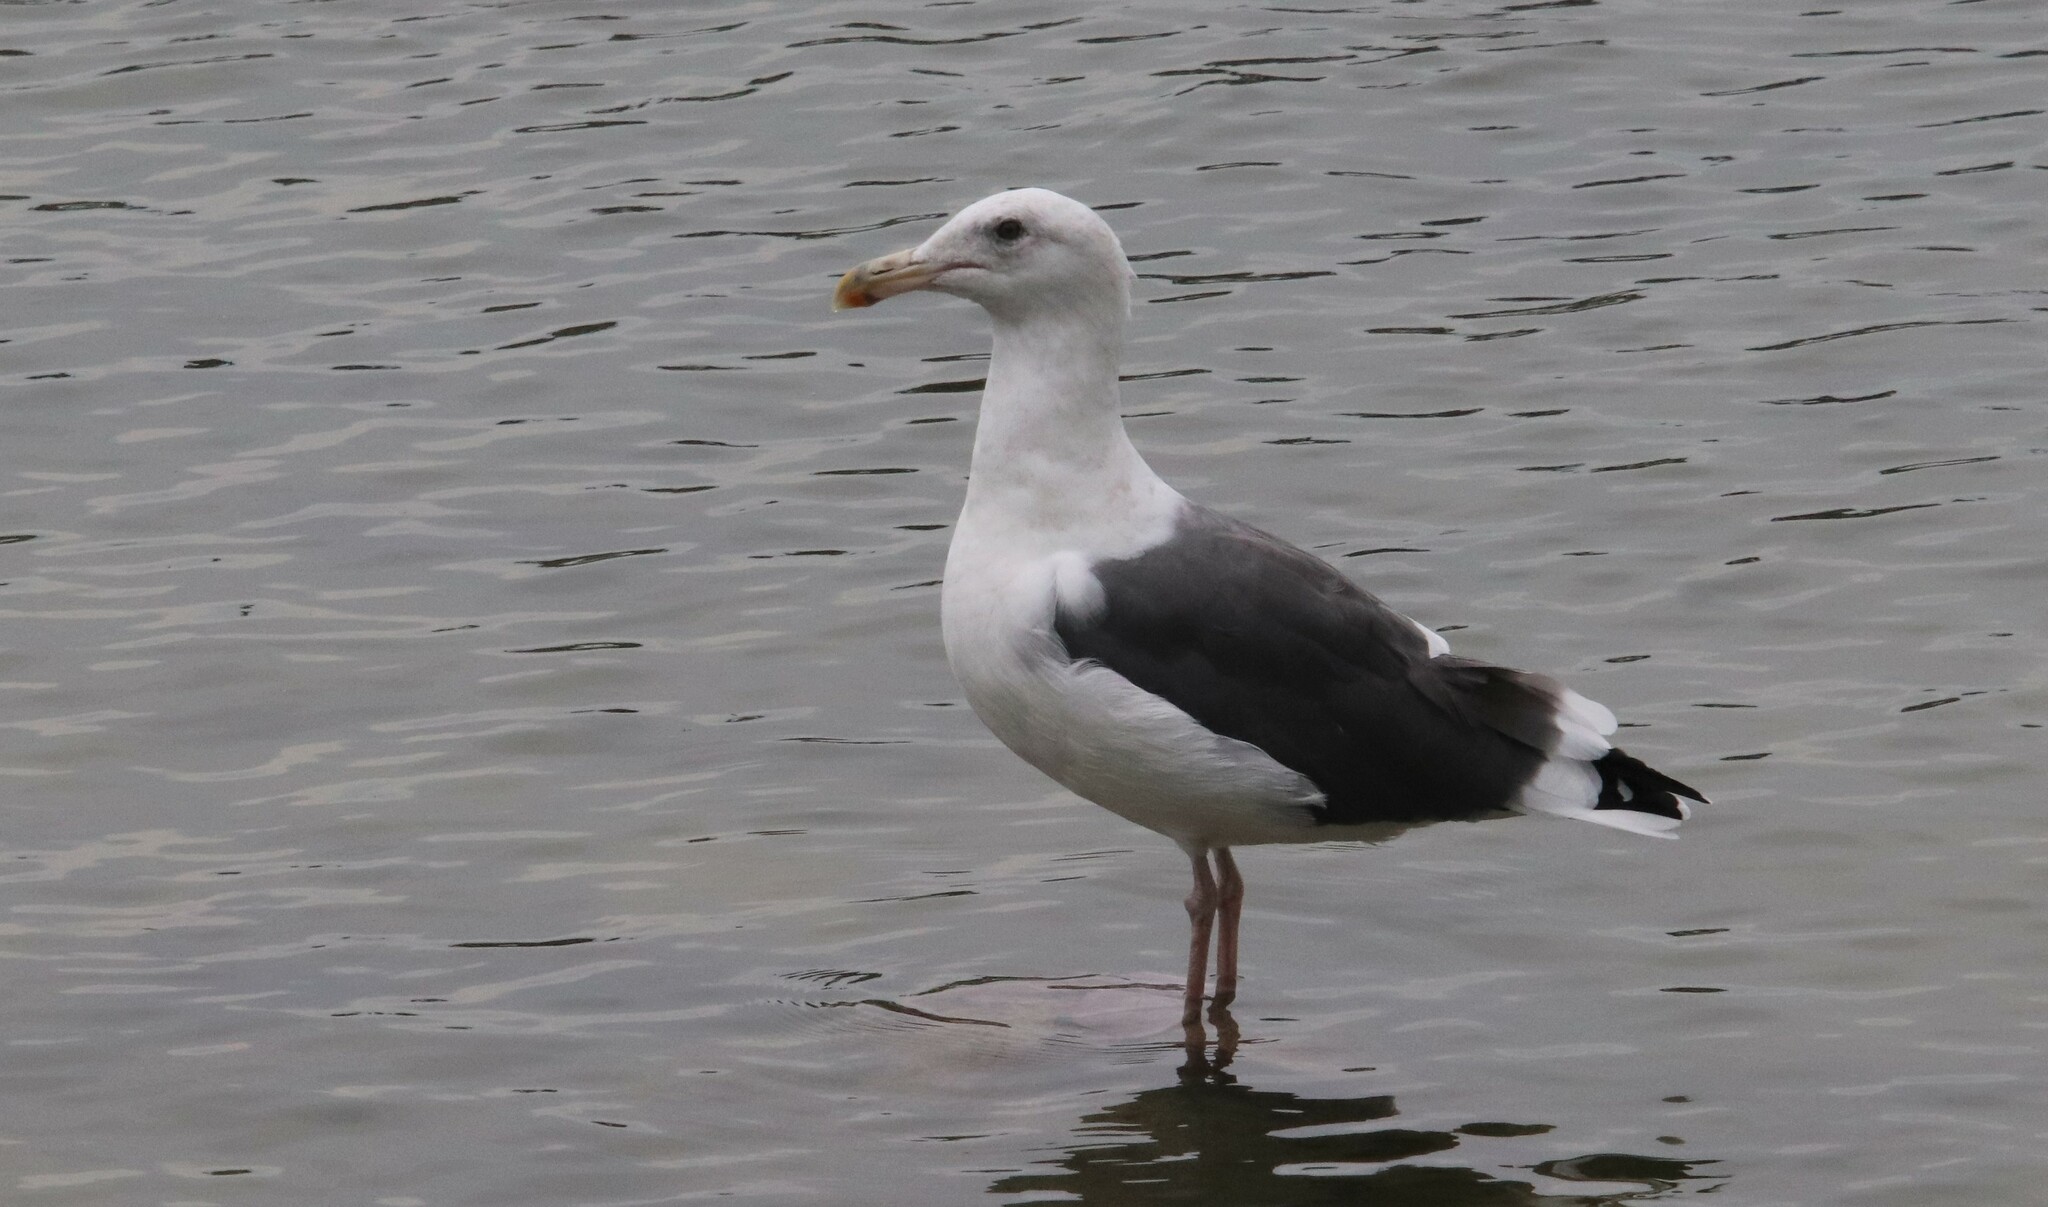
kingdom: Animalia
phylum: Chordata
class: Aves
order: Charadriiformes
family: Laridae
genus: Larus
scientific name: Larus occidentalis
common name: Western gull
